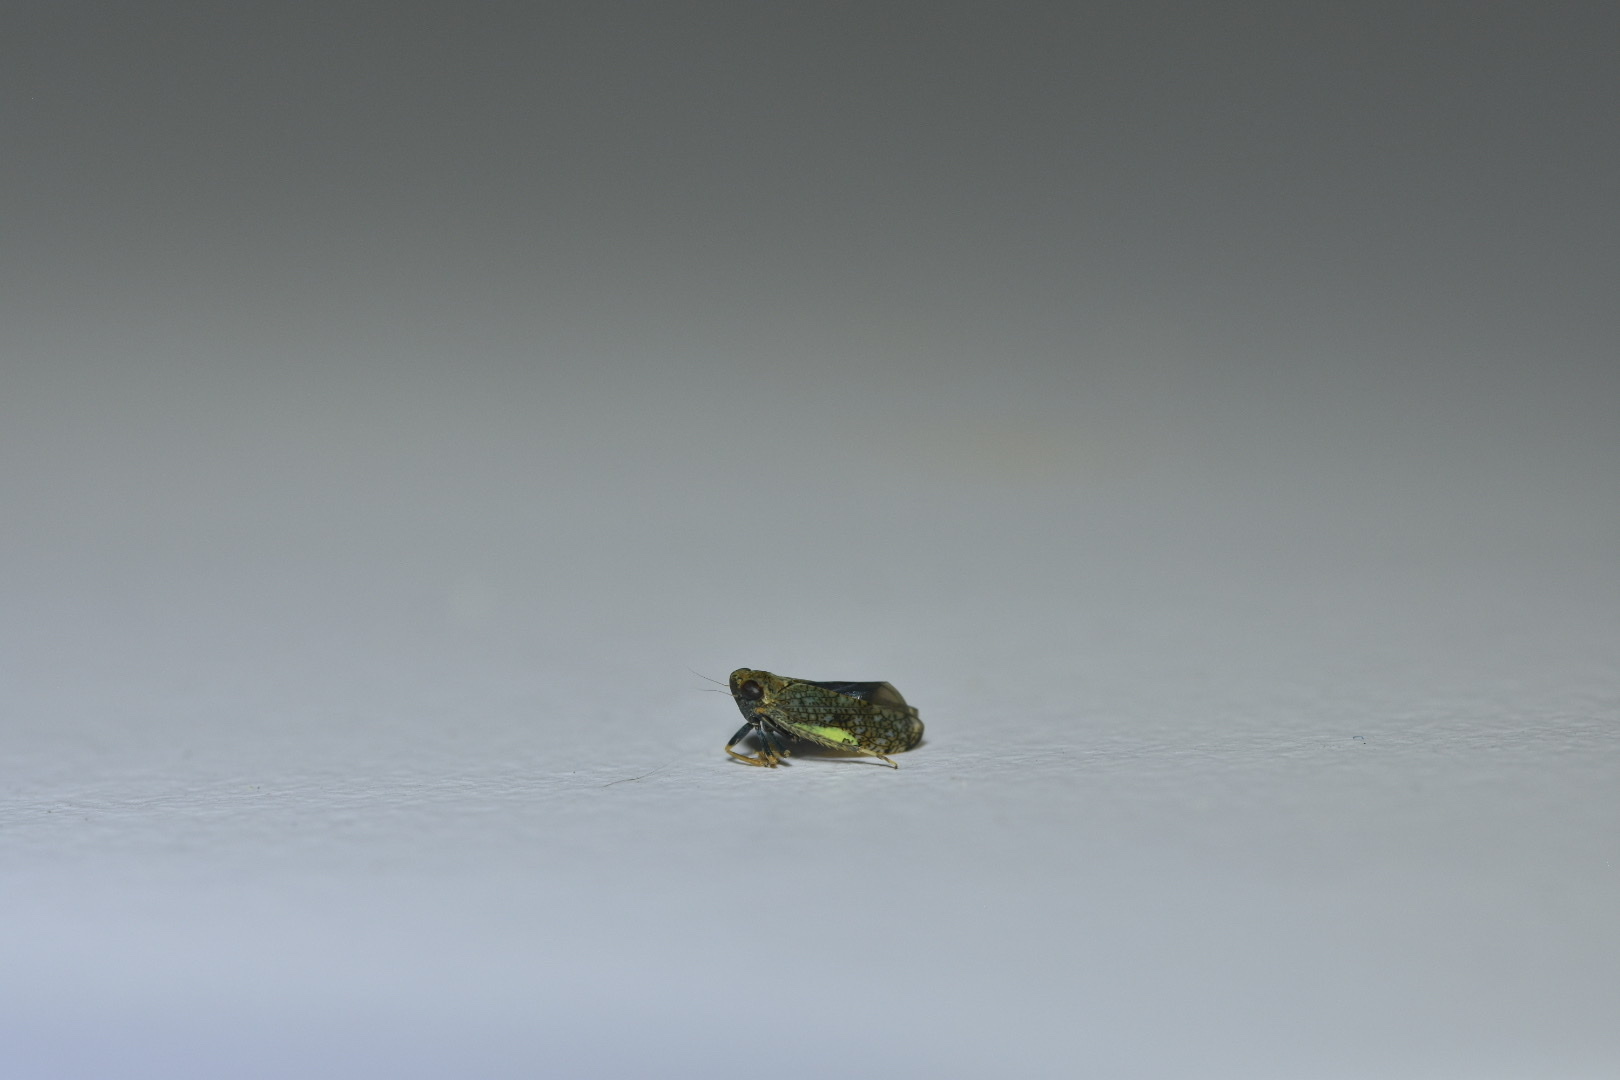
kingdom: Animalia
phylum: Arthropoda
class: Insecta
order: Hemiptera
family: Cicadellidae
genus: Orientus
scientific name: Orientus ishidae
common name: Japanese leafhopper
